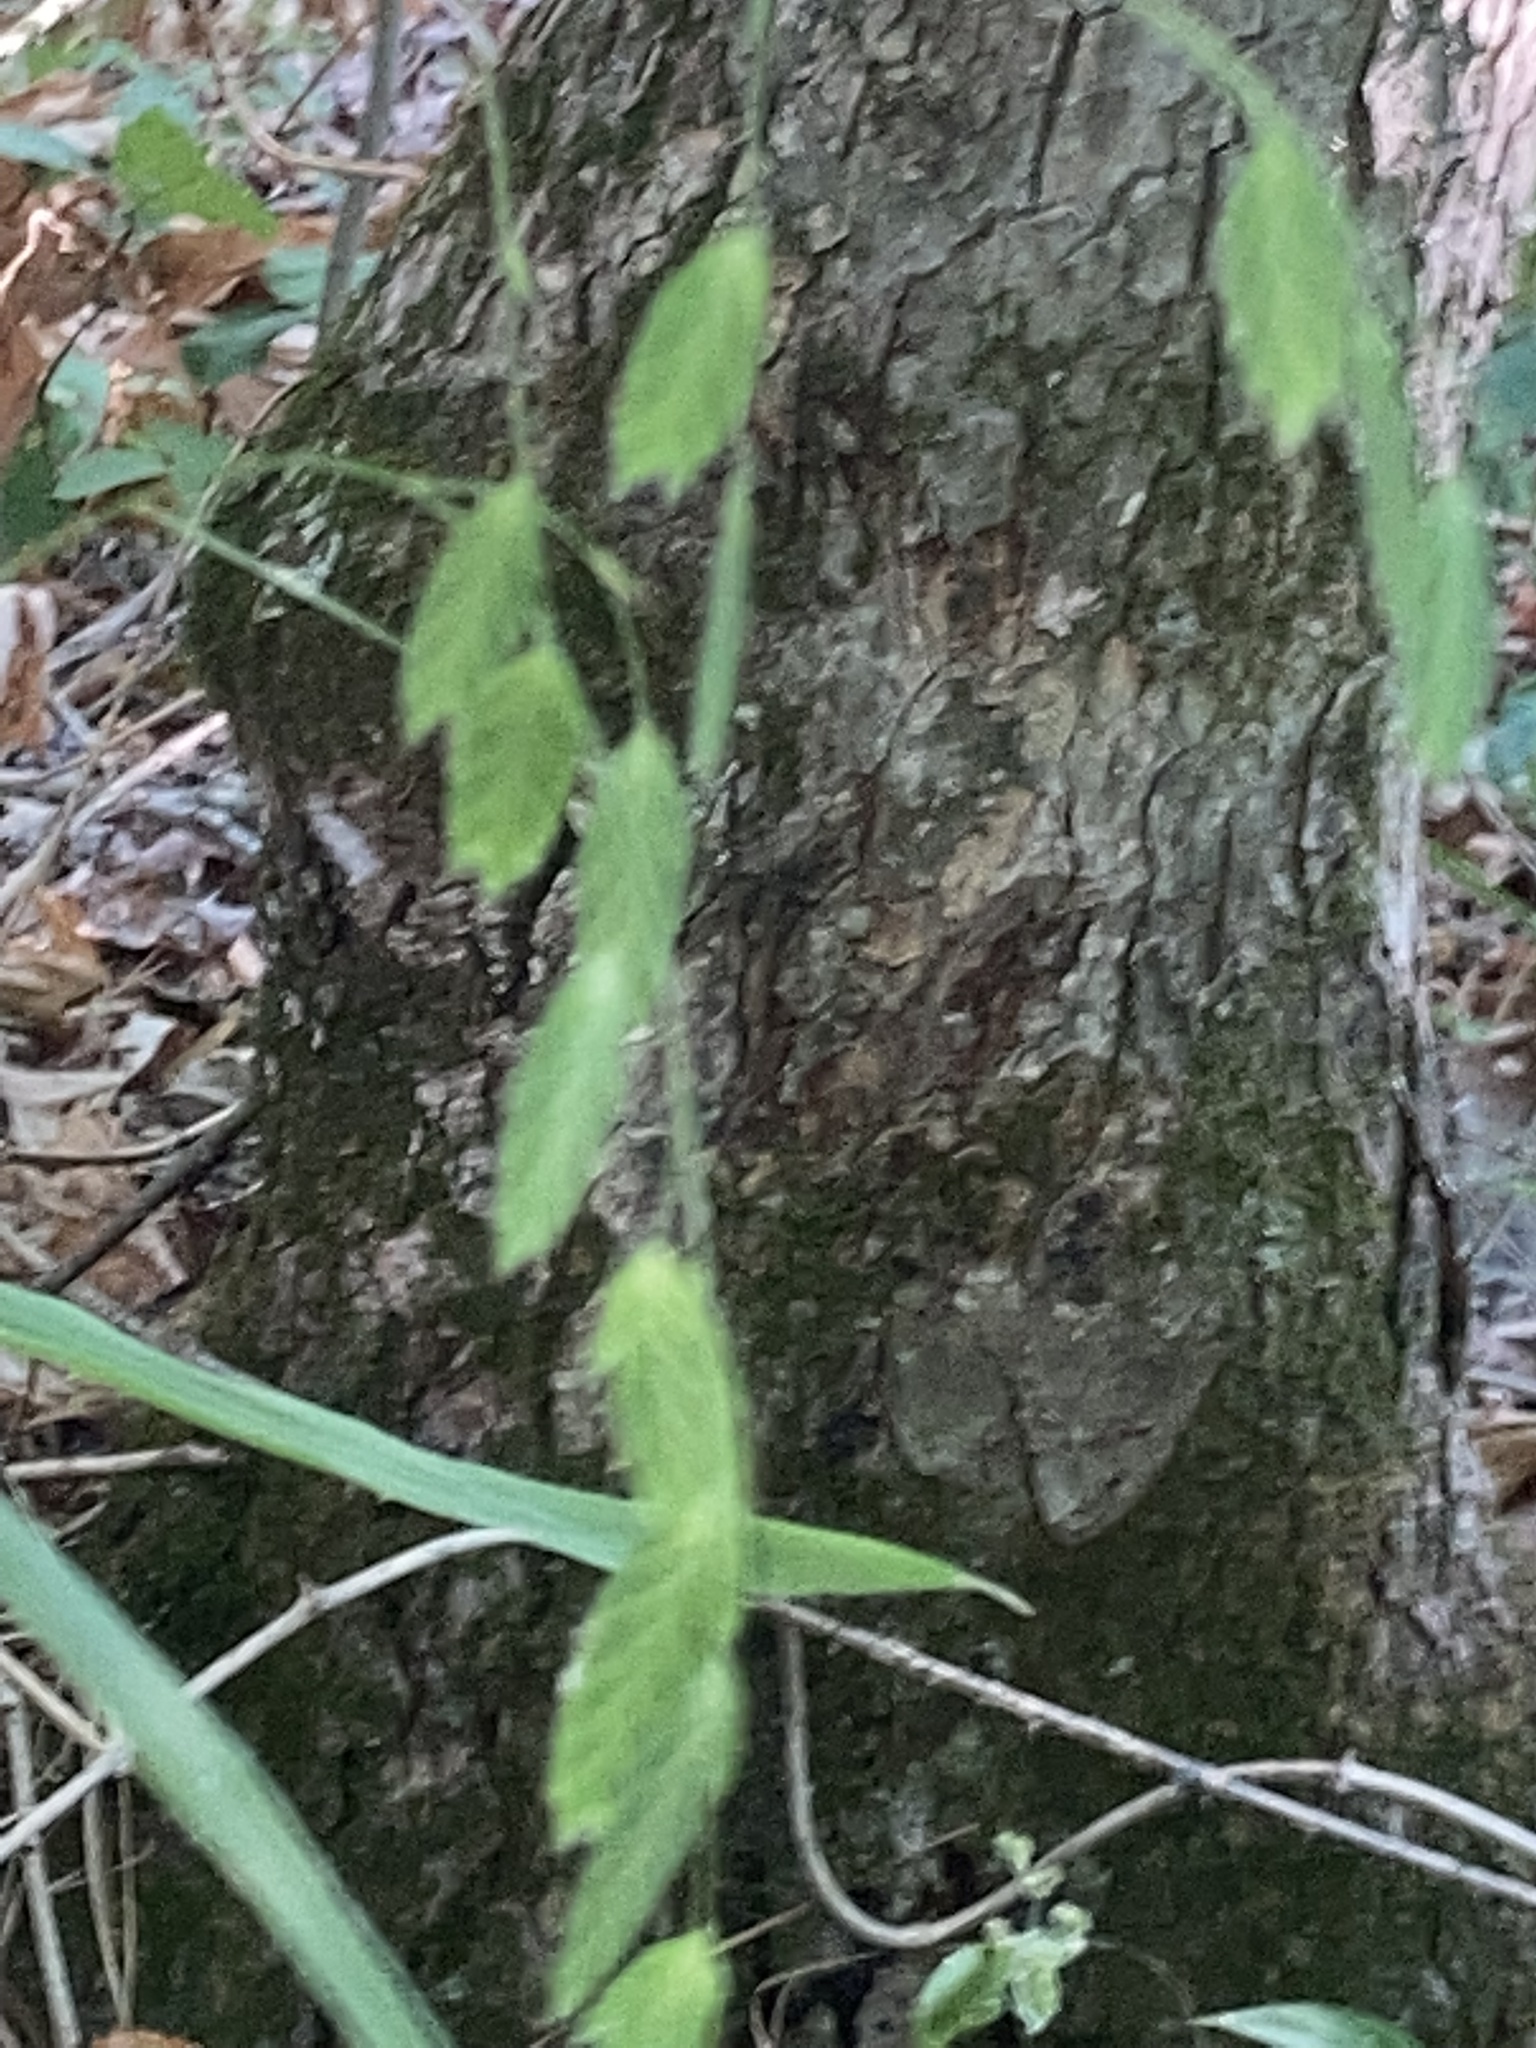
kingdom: Plantae
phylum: Tracheophyta
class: Liliopsida
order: Poales
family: Poaceae
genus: Chasmanthium
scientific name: Chasmanthium latifolium
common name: Broad-leaved chasmanthium
